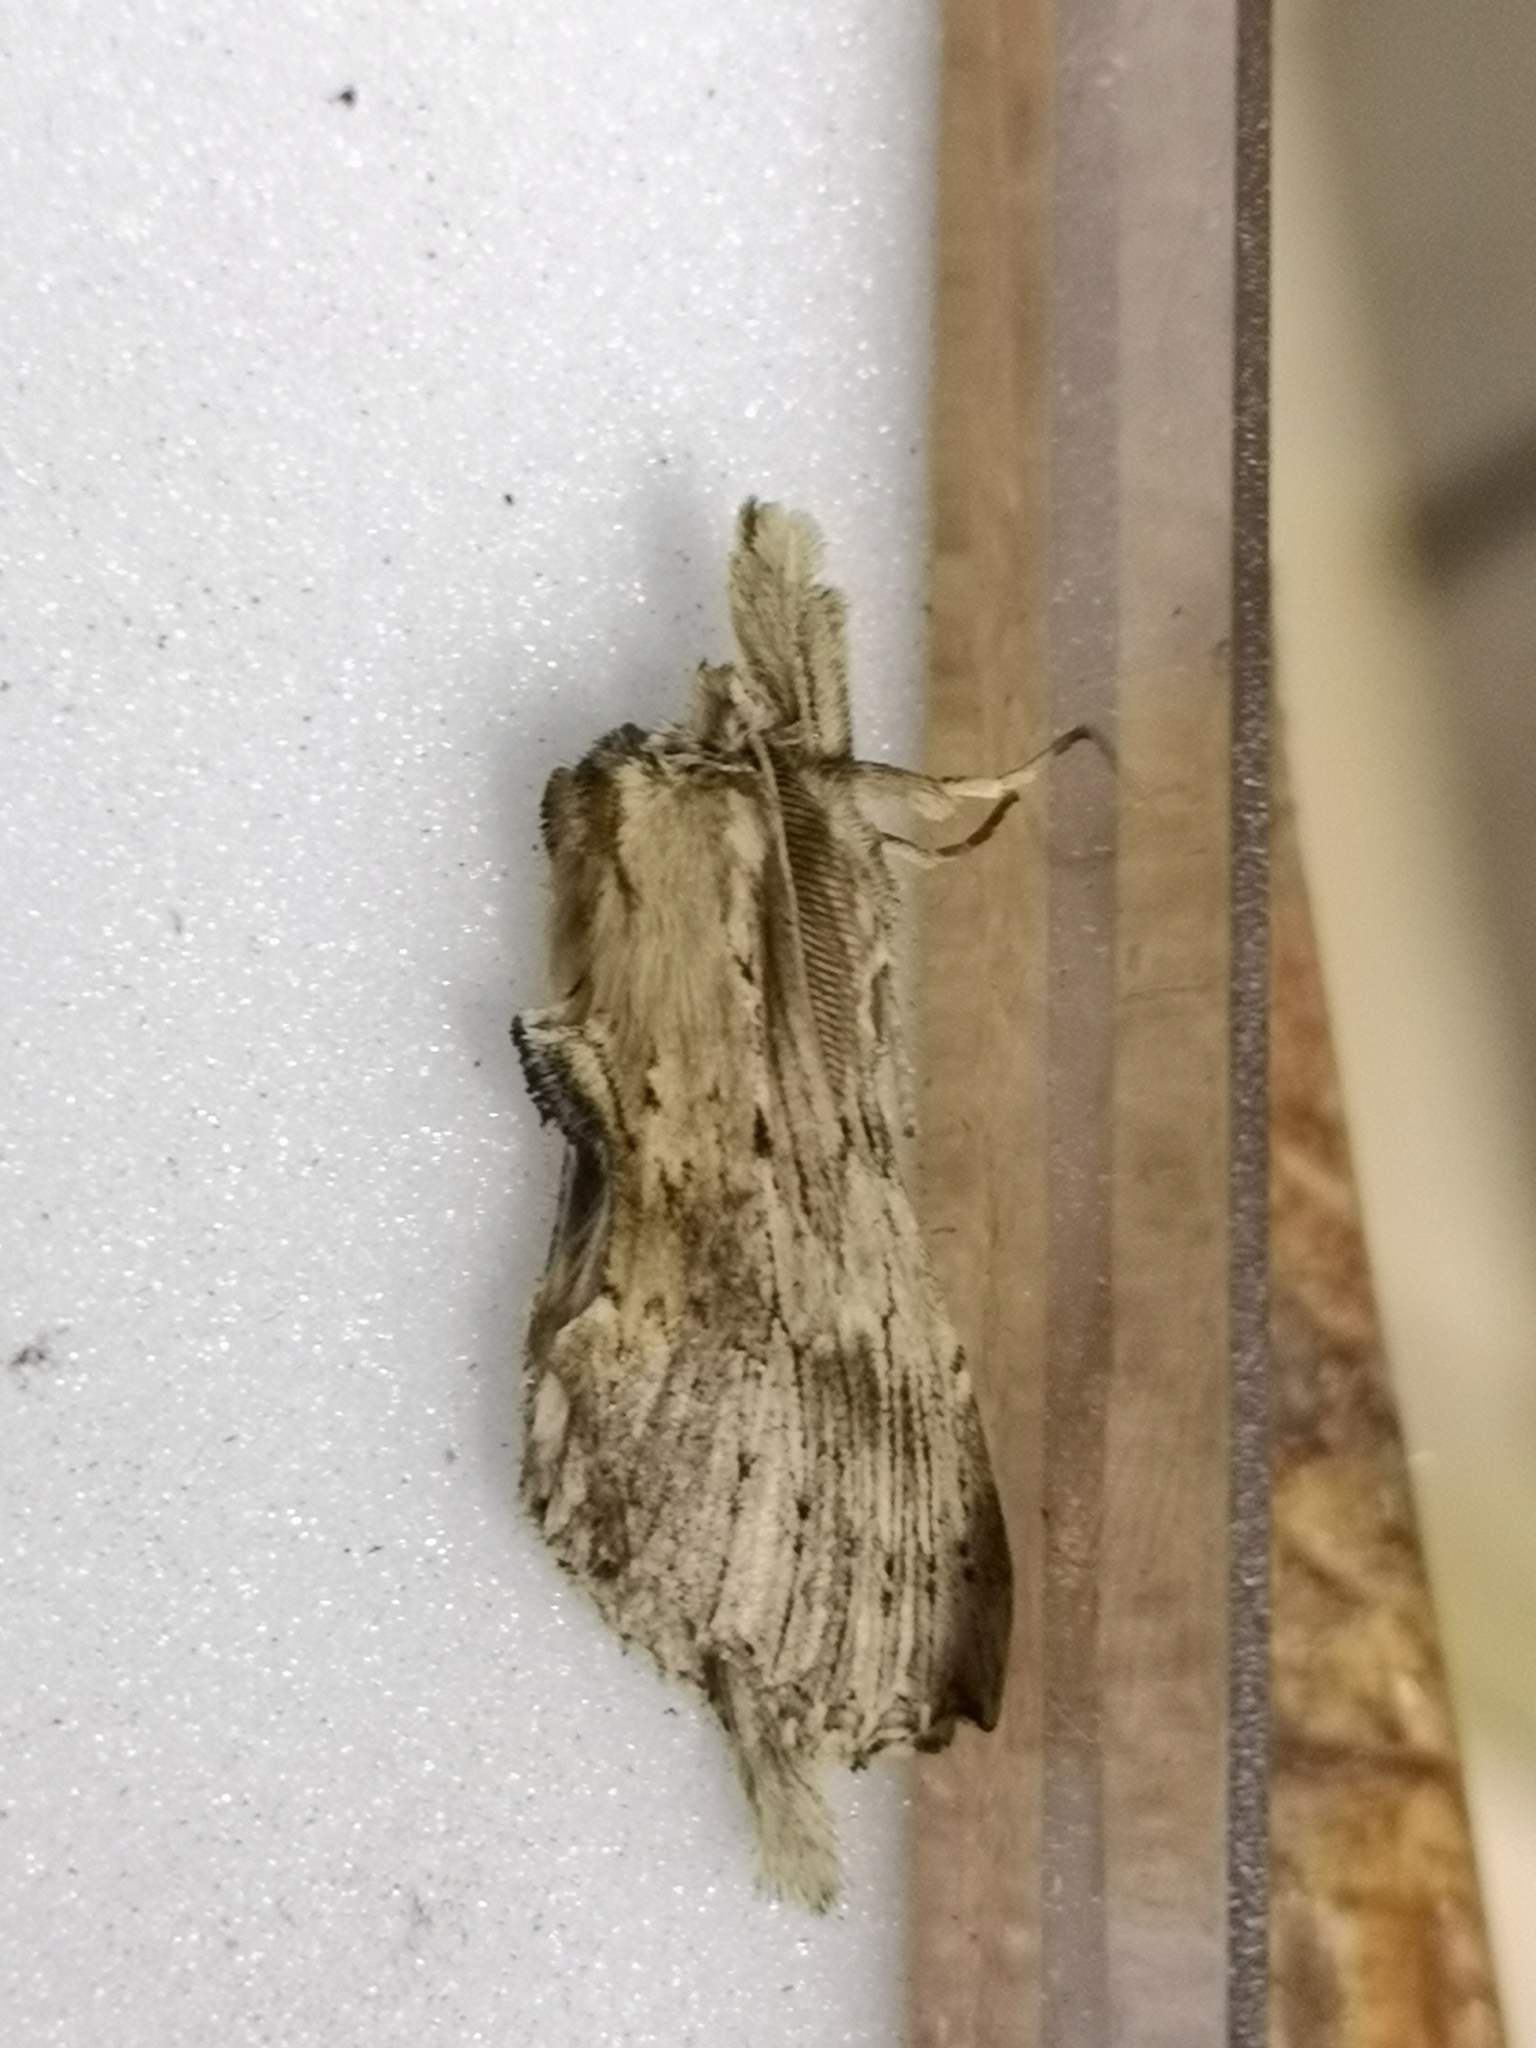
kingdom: Animalia
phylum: Arthropoda
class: Insecta
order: Lepidoptera
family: Notodontidae
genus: Pterostoma
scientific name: Pterostoma palpina
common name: Pale prominent
